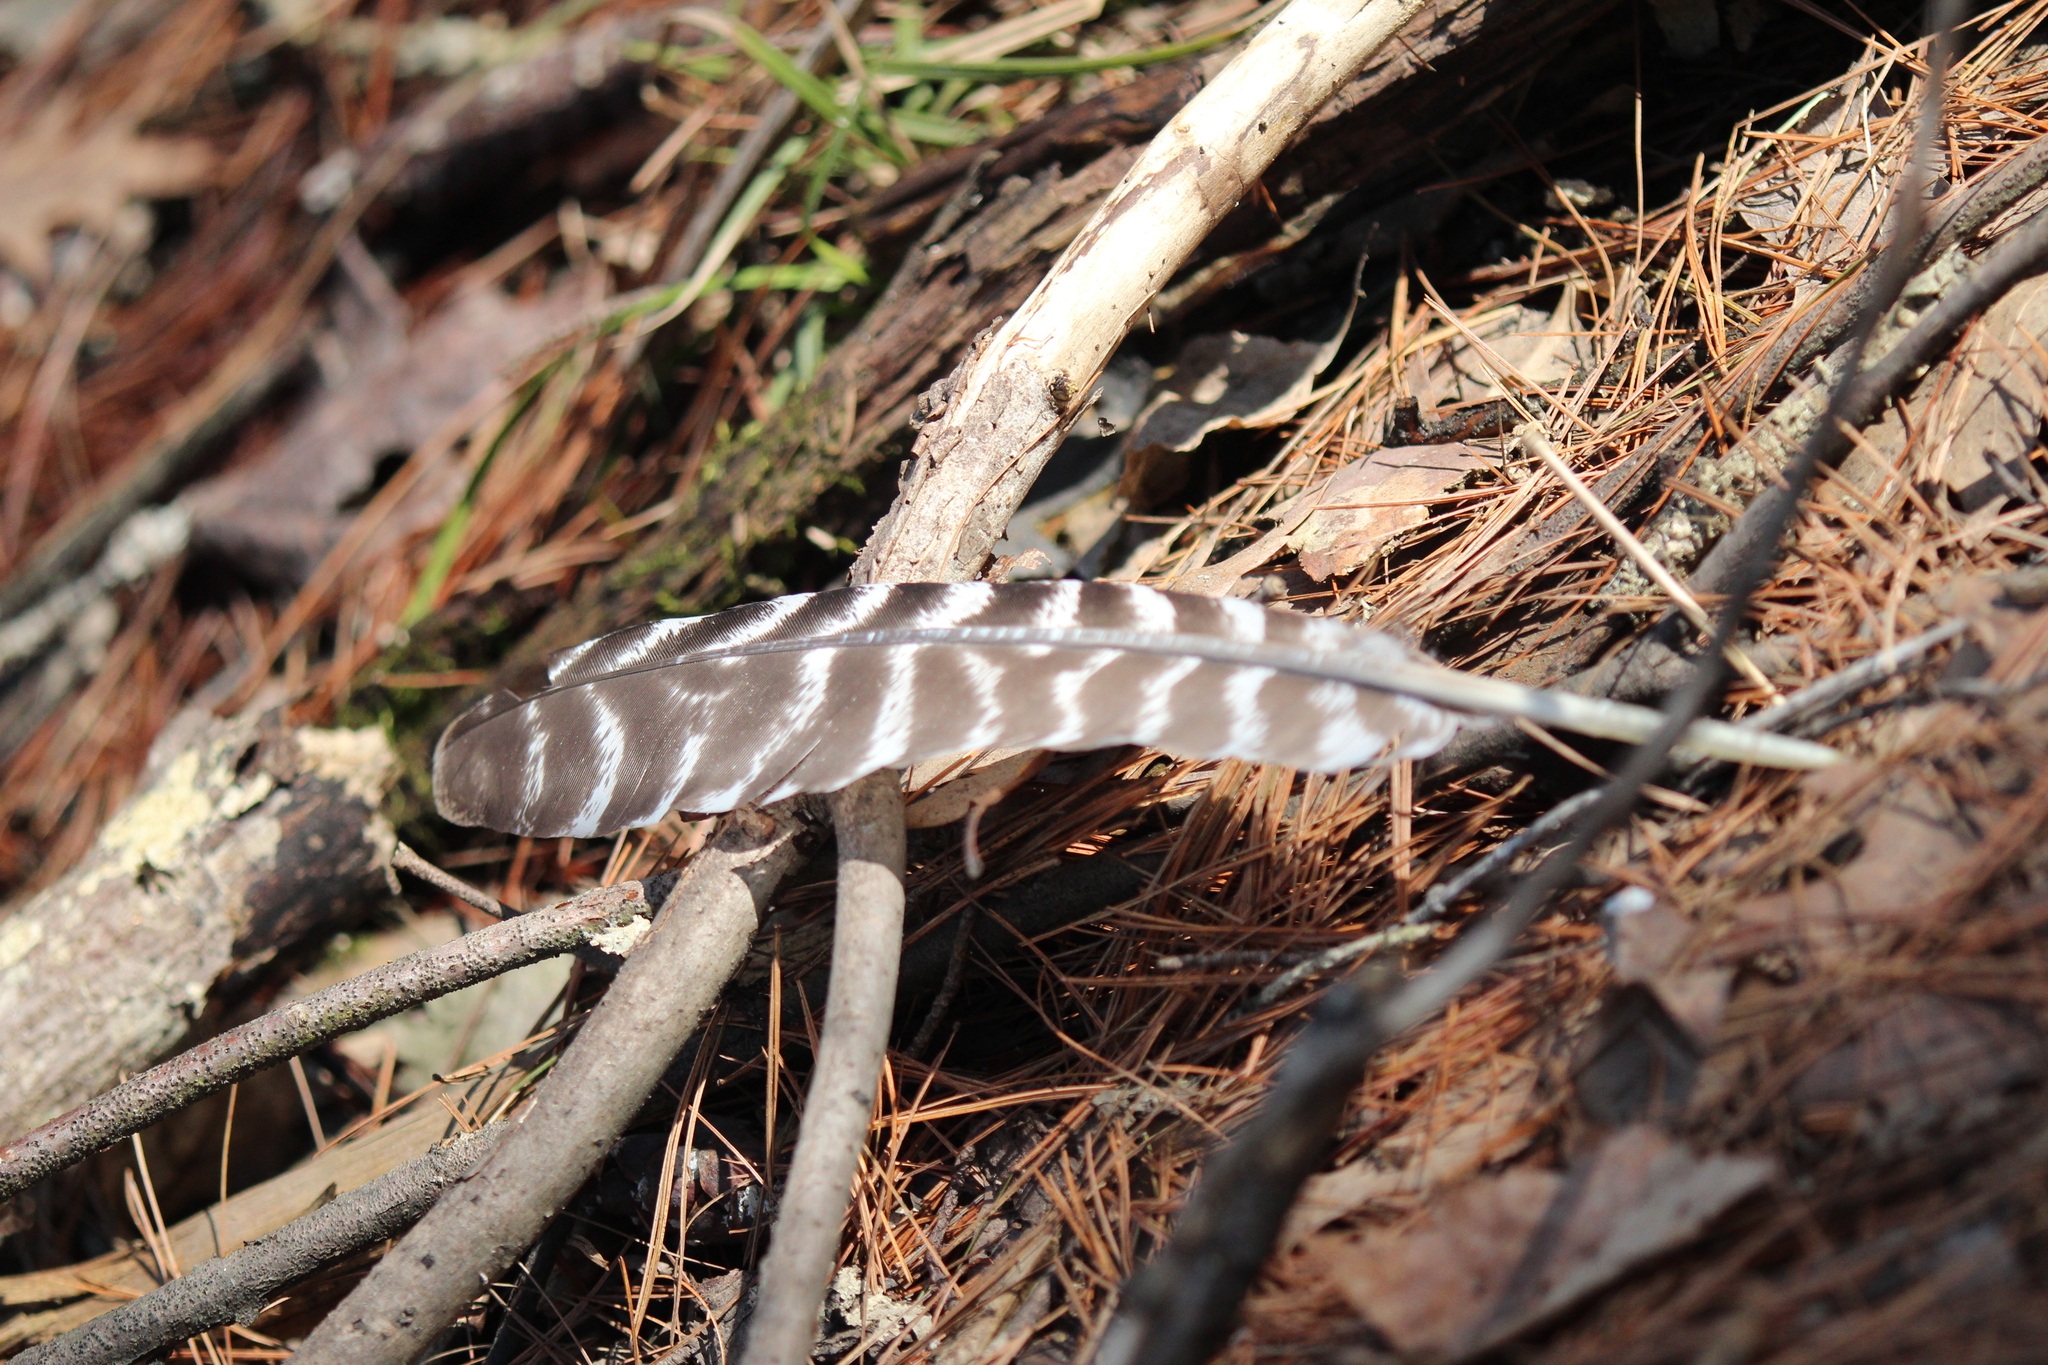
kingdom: Animalia
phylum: Chordata
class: Aves
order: Galliformes
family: Phasianidae
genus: Meleagris
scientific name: Meleagris gallopavo
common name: Wild turkey
